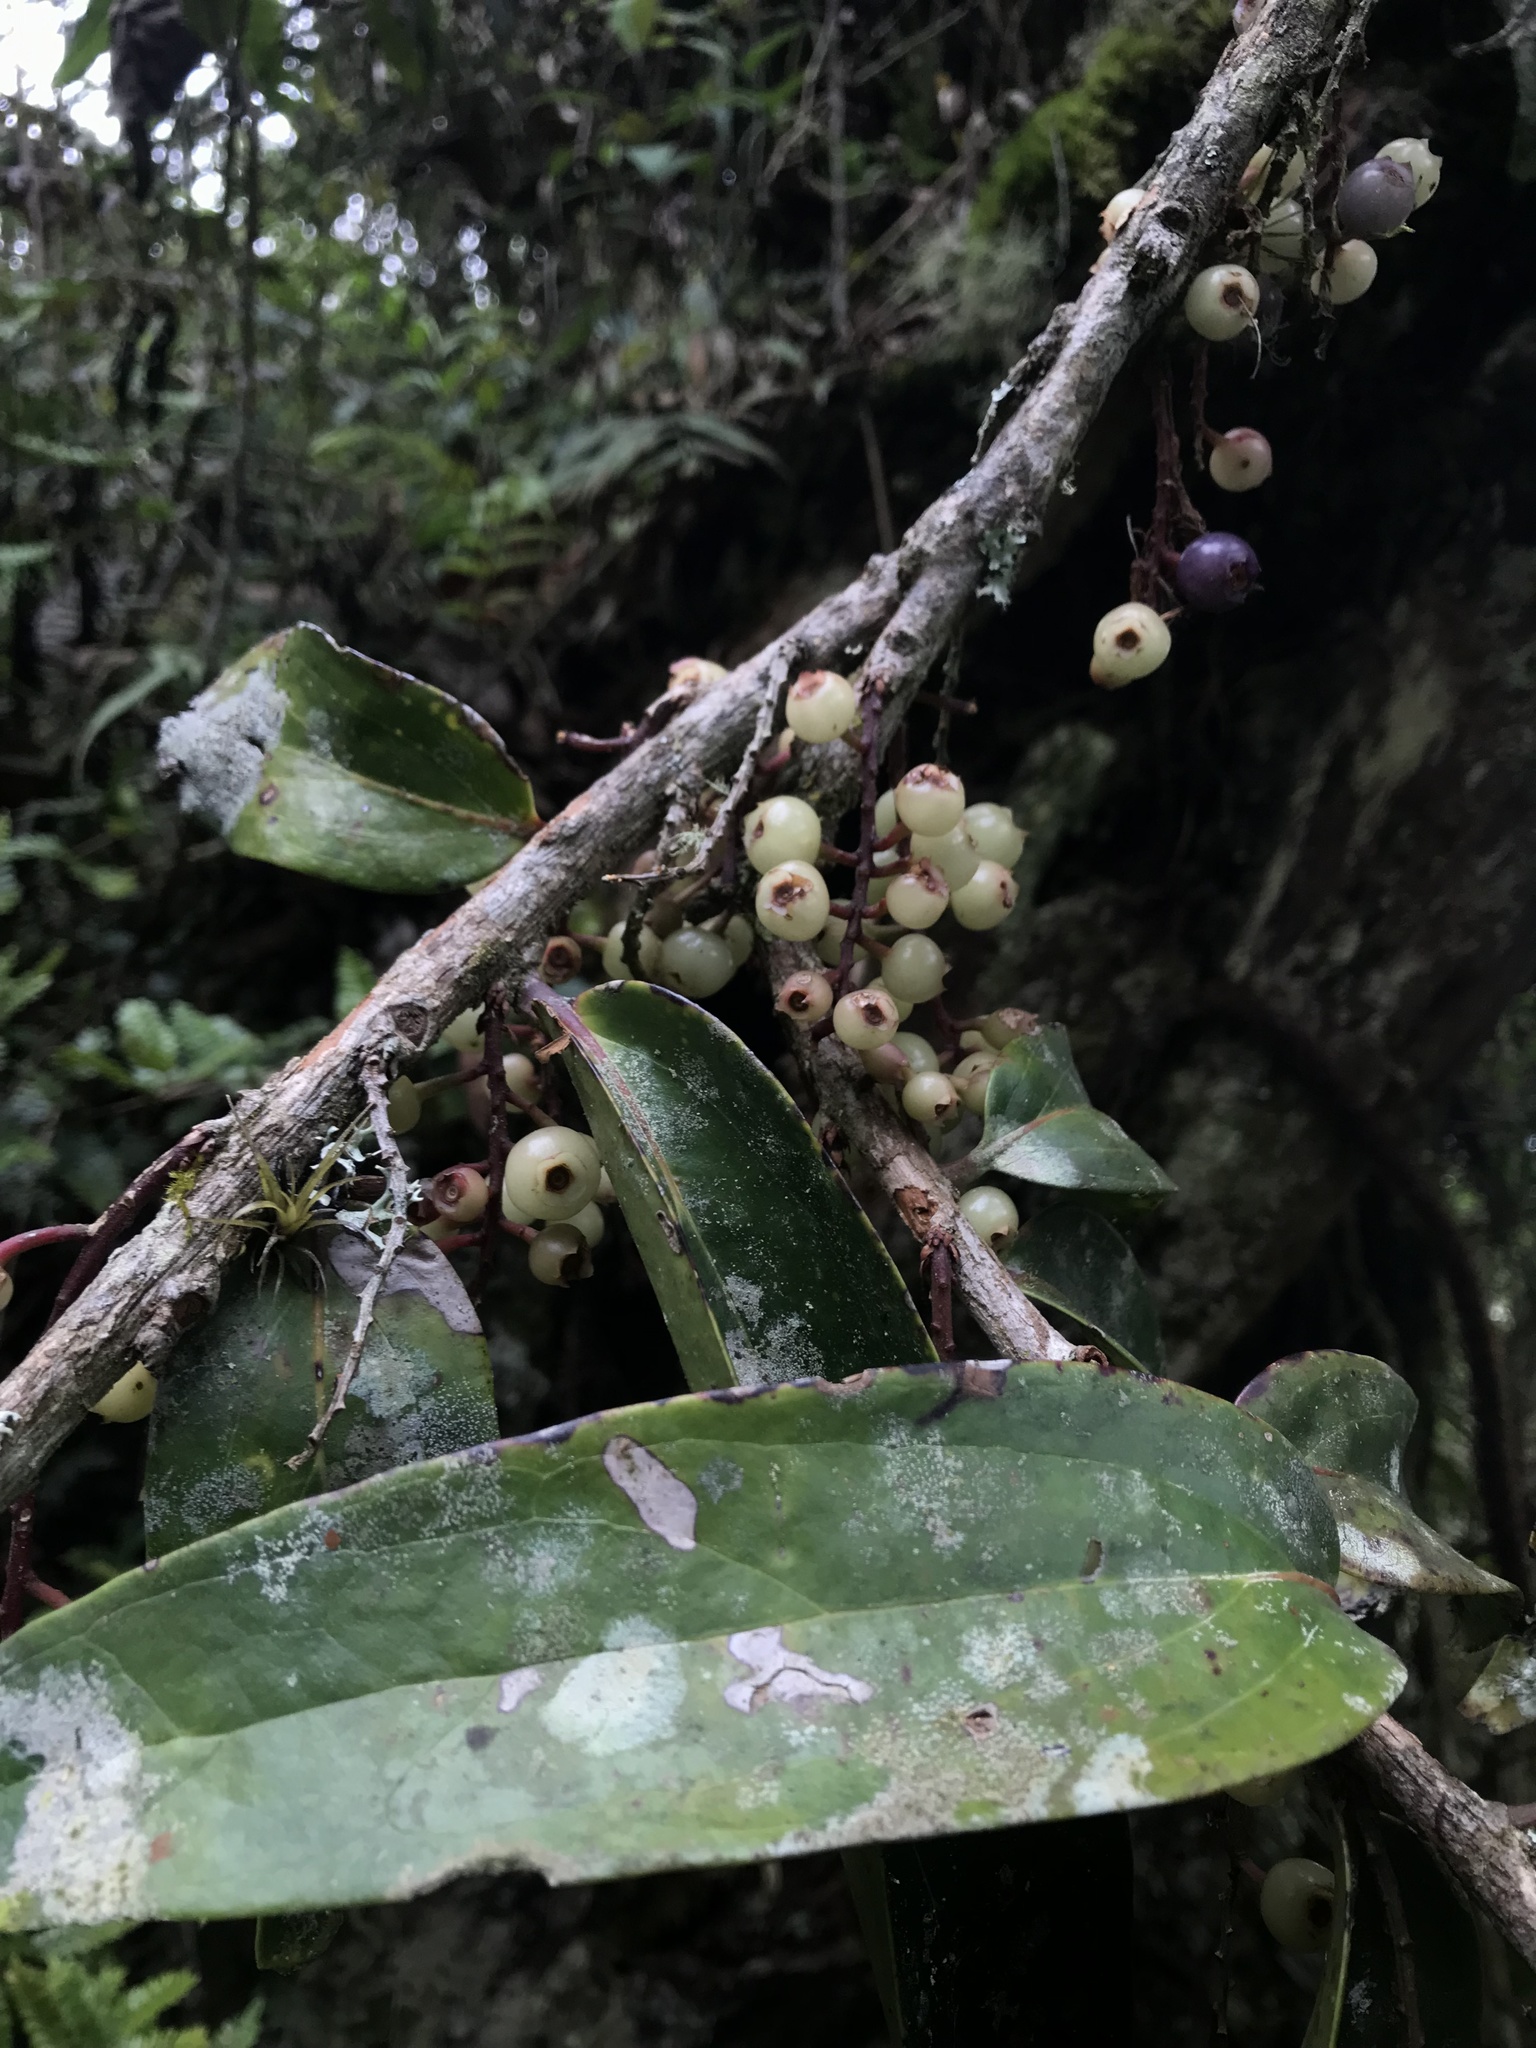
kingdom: Plantae
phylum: Tracheophyta
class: Magnoliopsida
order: Ericales
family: Ericaceae
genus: Thibaudia
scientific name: Thibaudia floribunda
